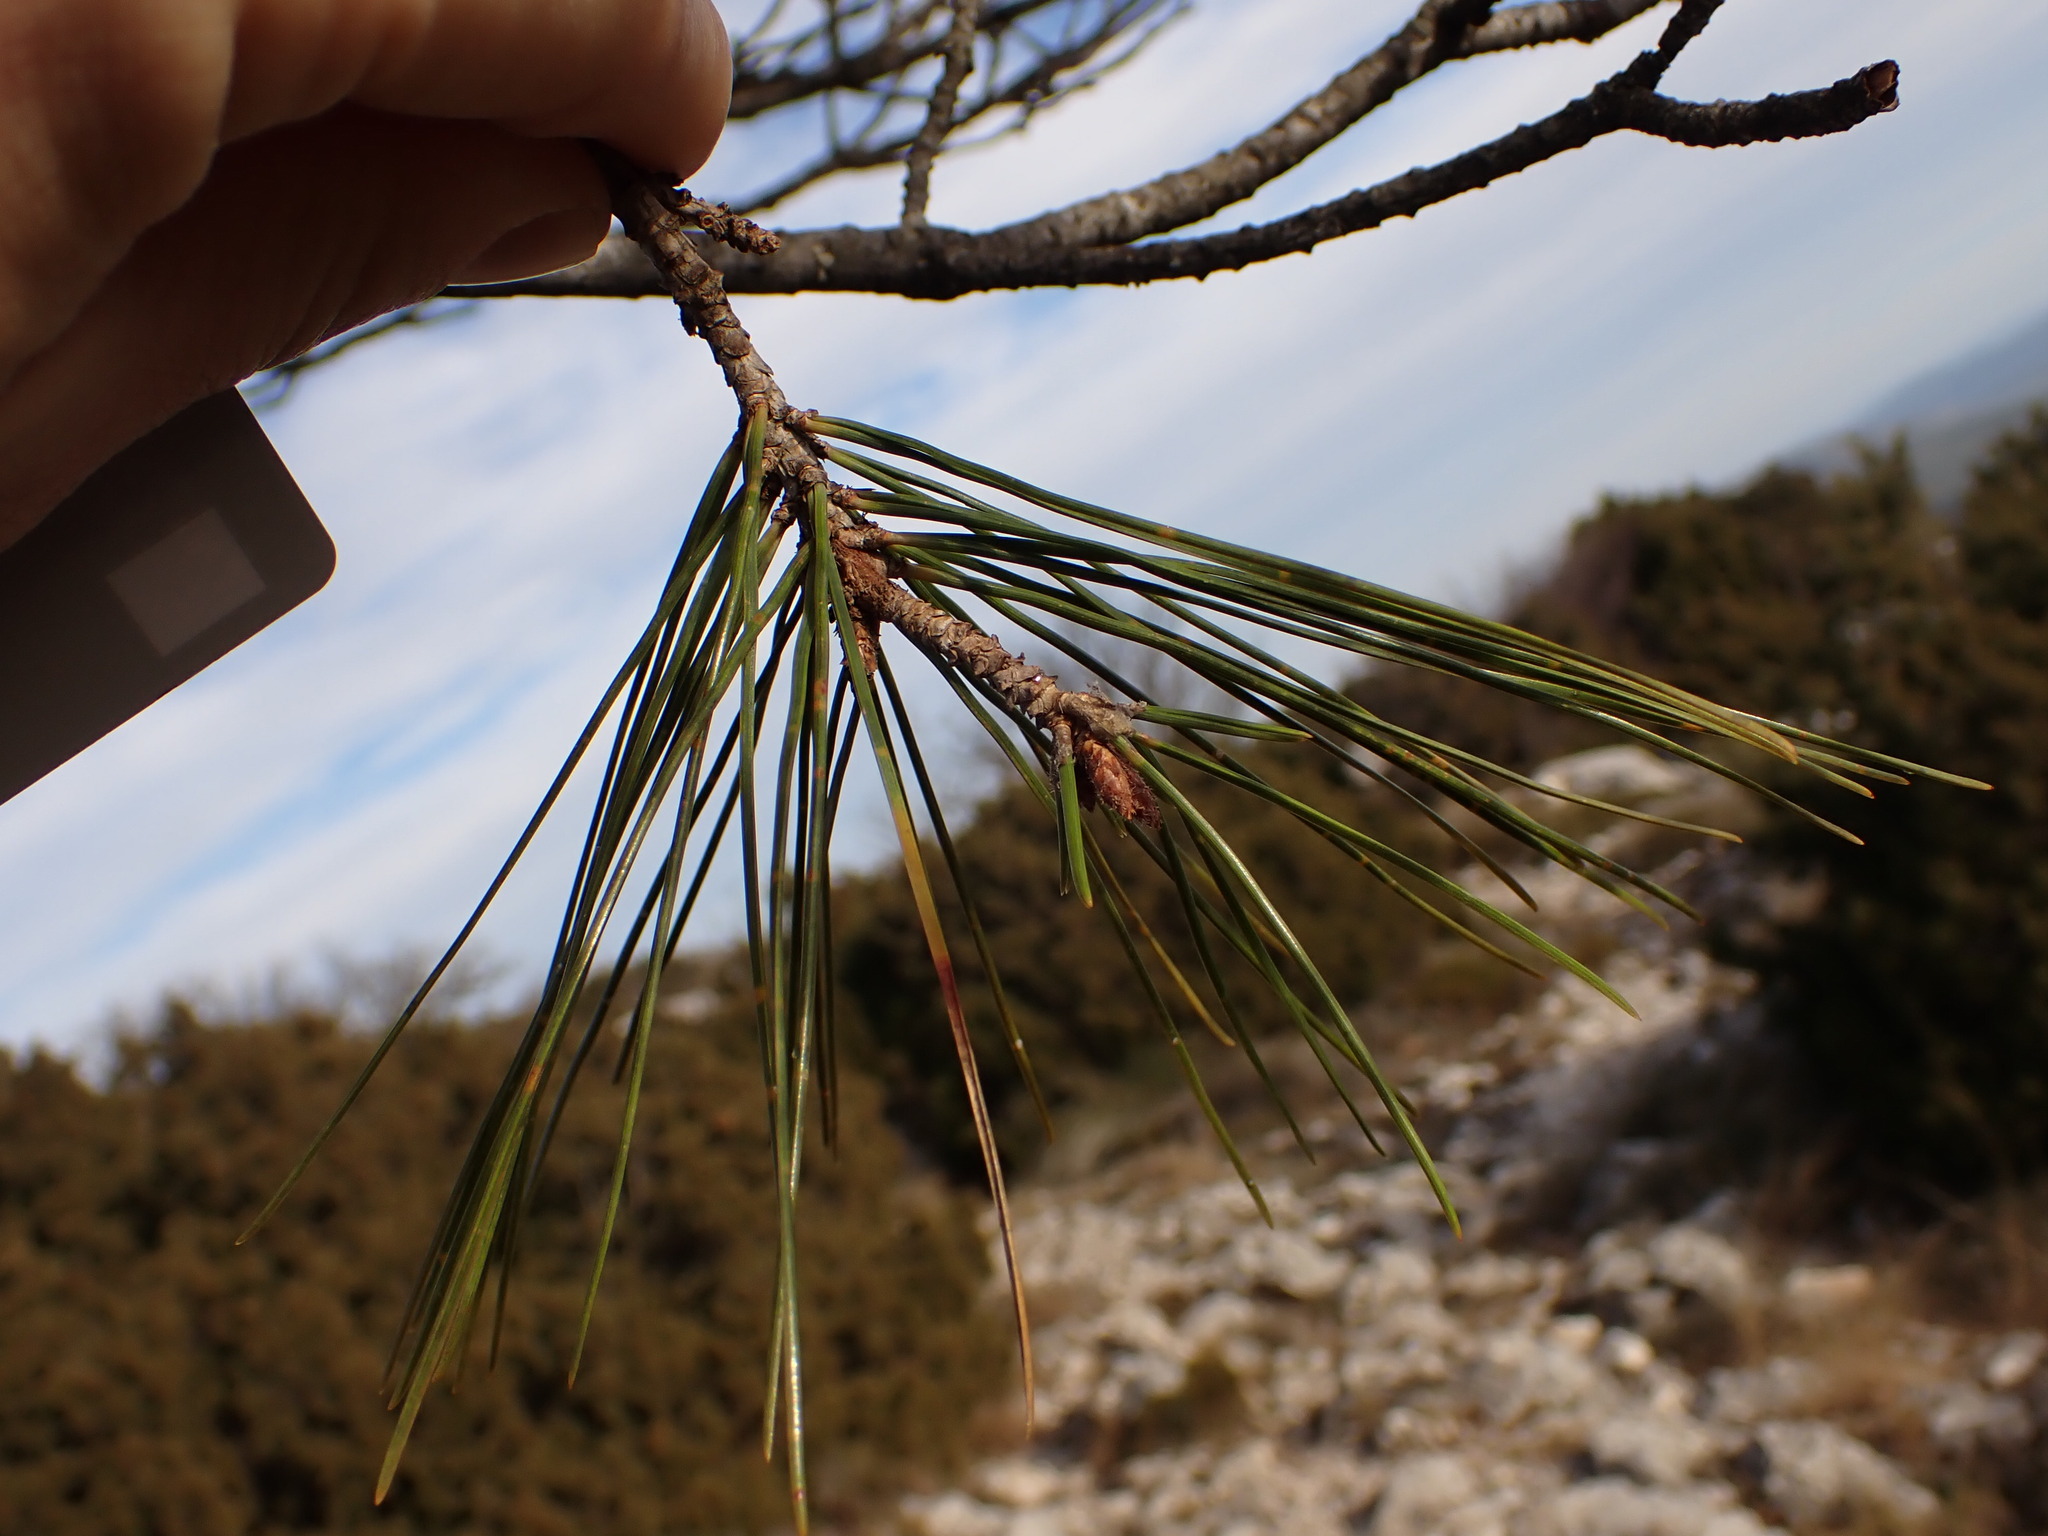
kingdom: Plantae
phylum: Tracheophyta
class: Pinopsida
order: Pinales
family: Pinaceae
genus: Pinus
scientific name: Pinus halepensis
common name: Aleppo pine
